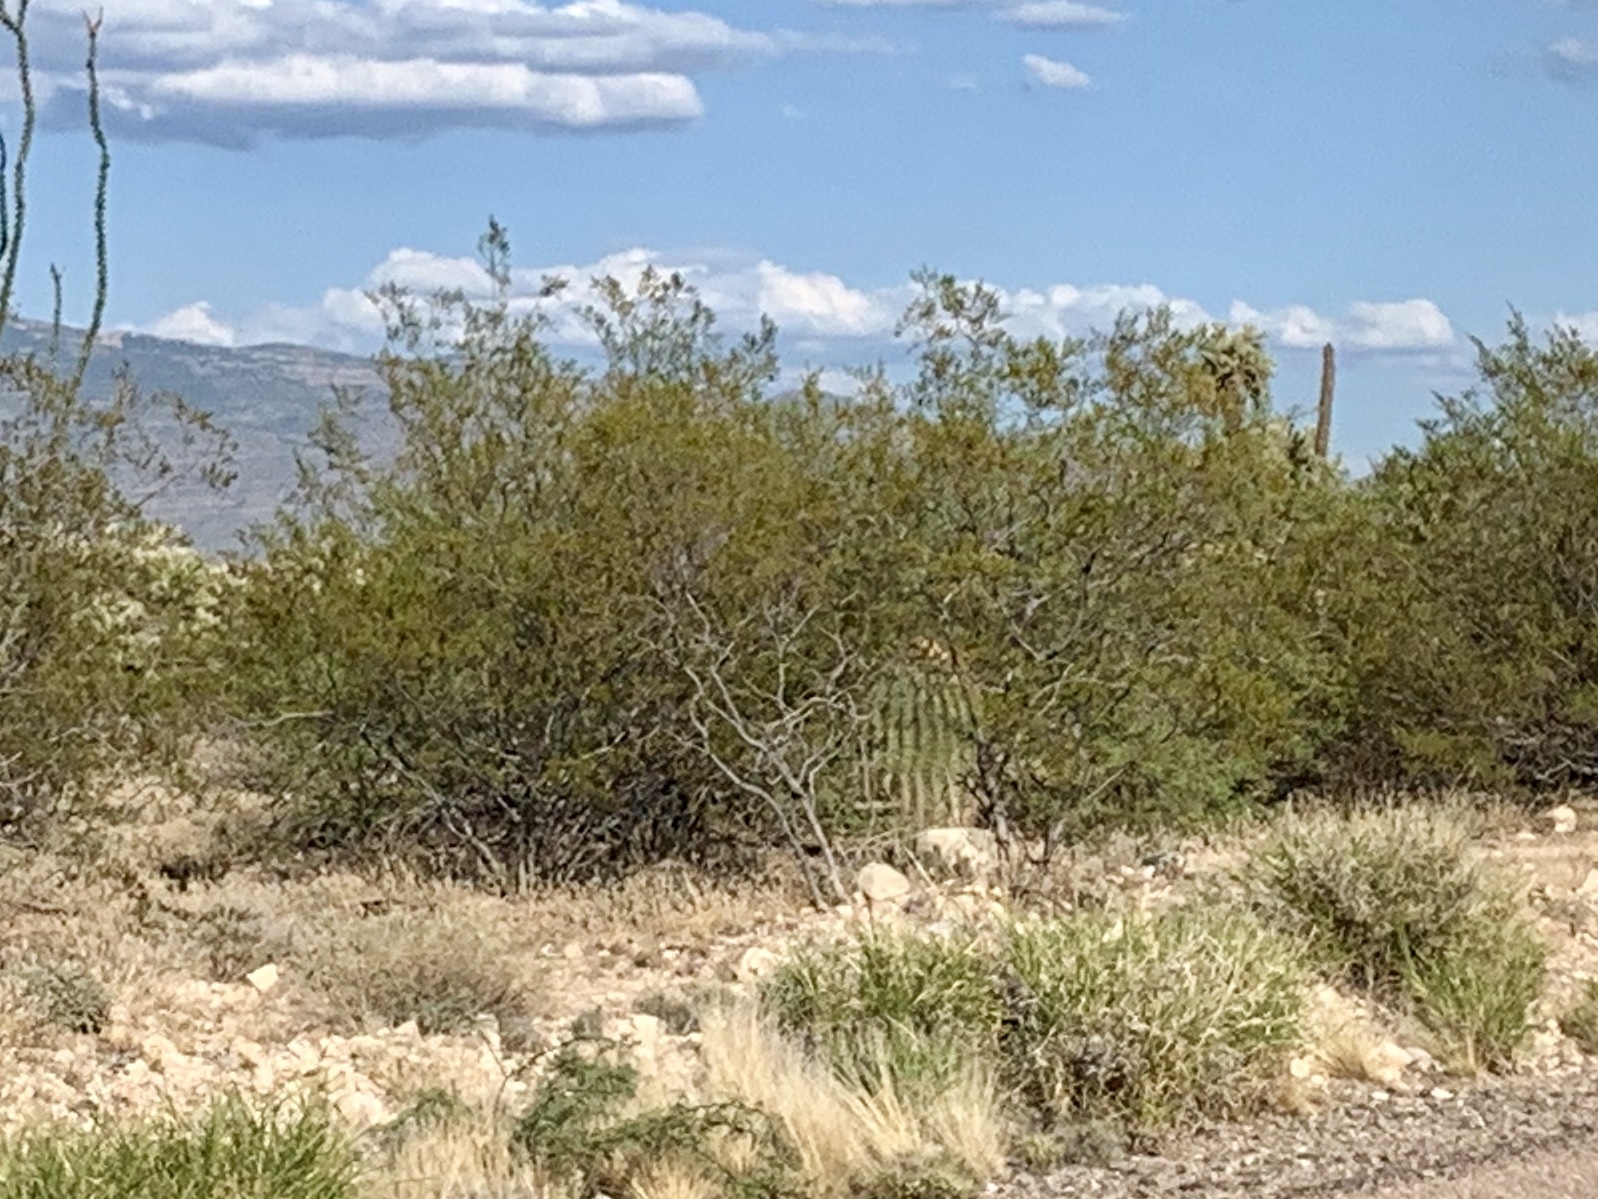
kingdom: Plantae
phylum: Tracheophyta
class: Magnoliopsida
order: Zygophyllales
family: Zygophyllaceae
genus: Larrea
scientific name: Larrea tridentata
